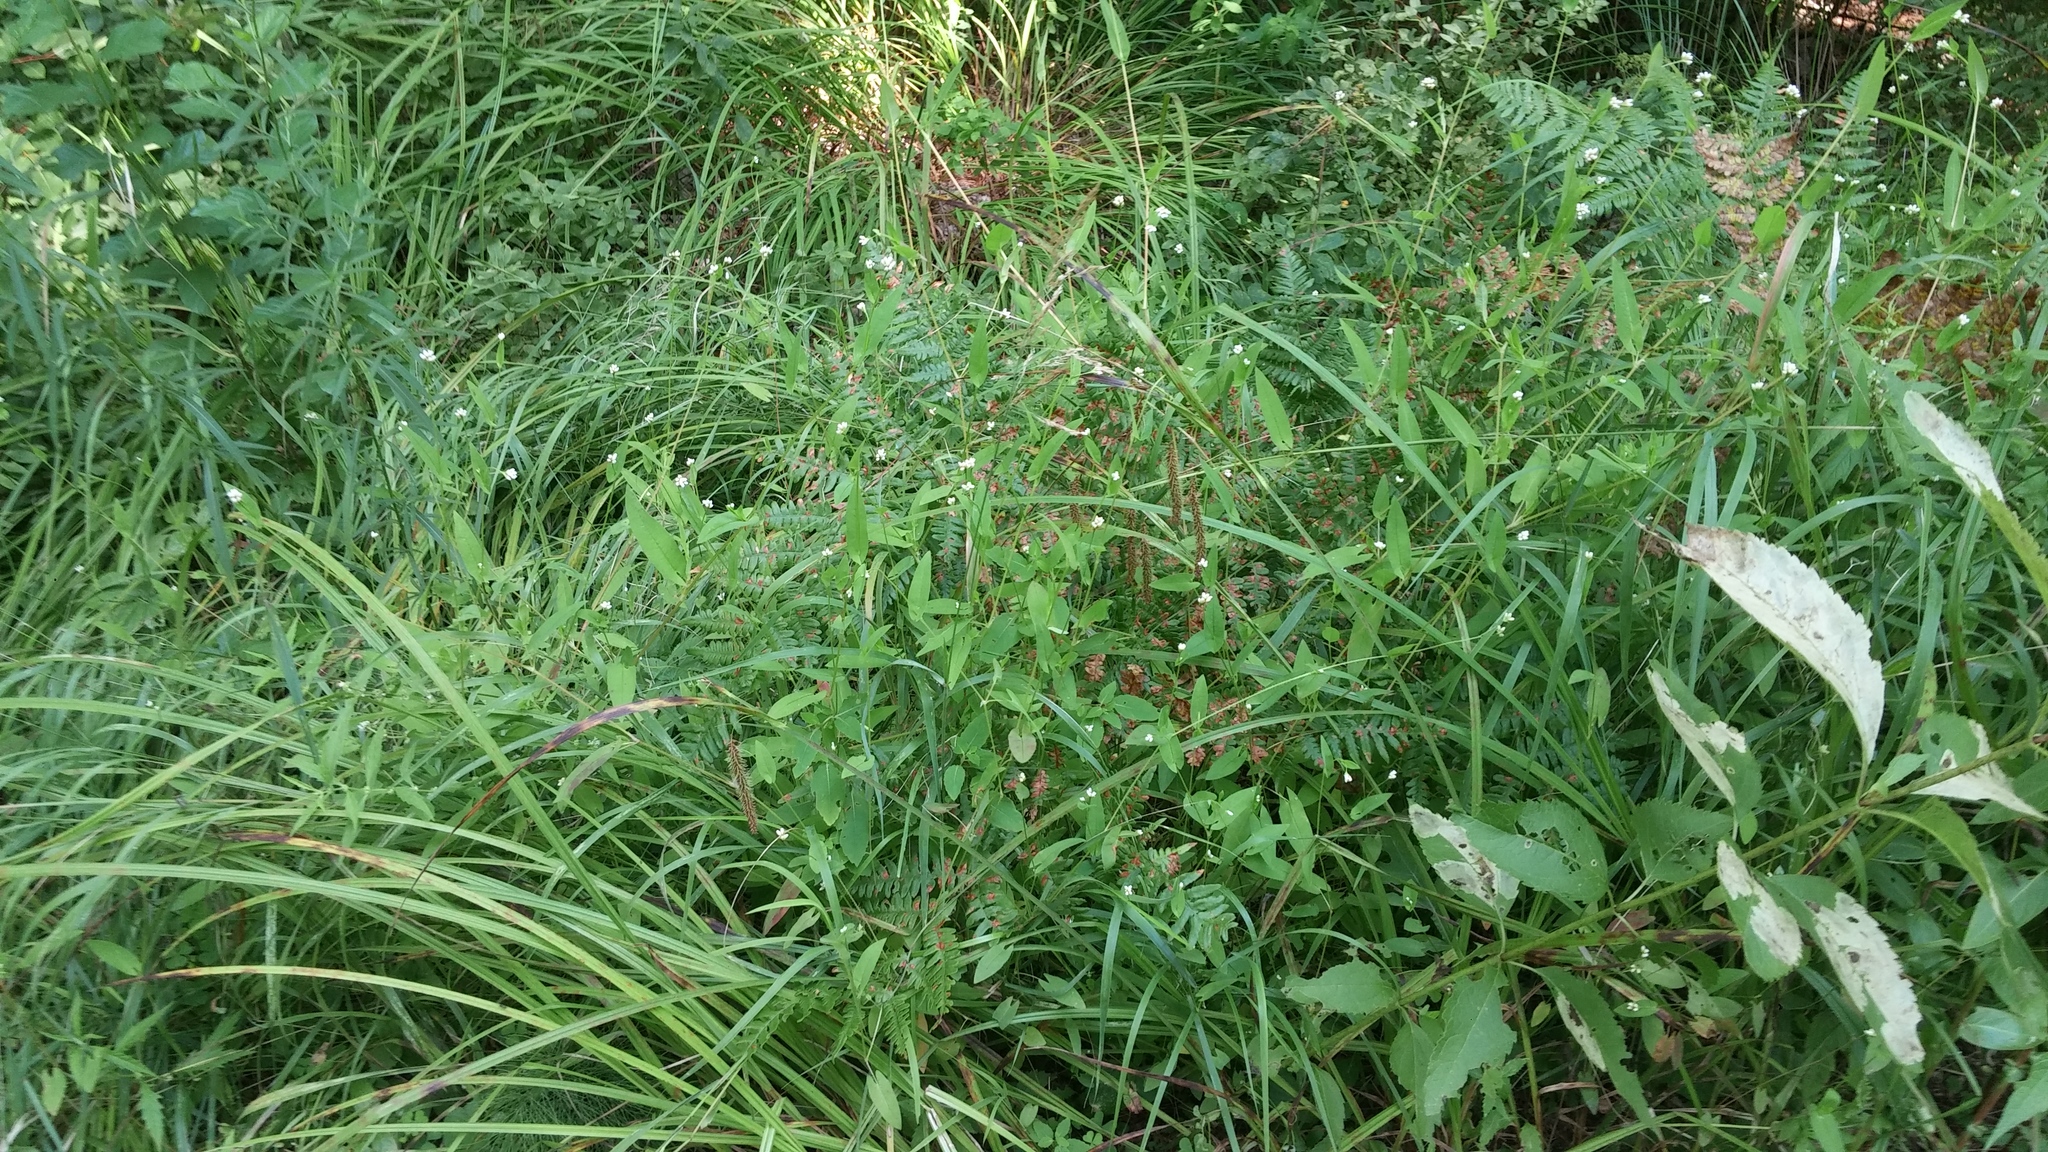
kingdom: Plantae
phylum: Tracheophyta
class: Magnoliopsida
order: Caryophyllales
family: Polygonaceae
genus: Persicaria
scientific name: Persicaria sagittata
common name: American tearthumb
